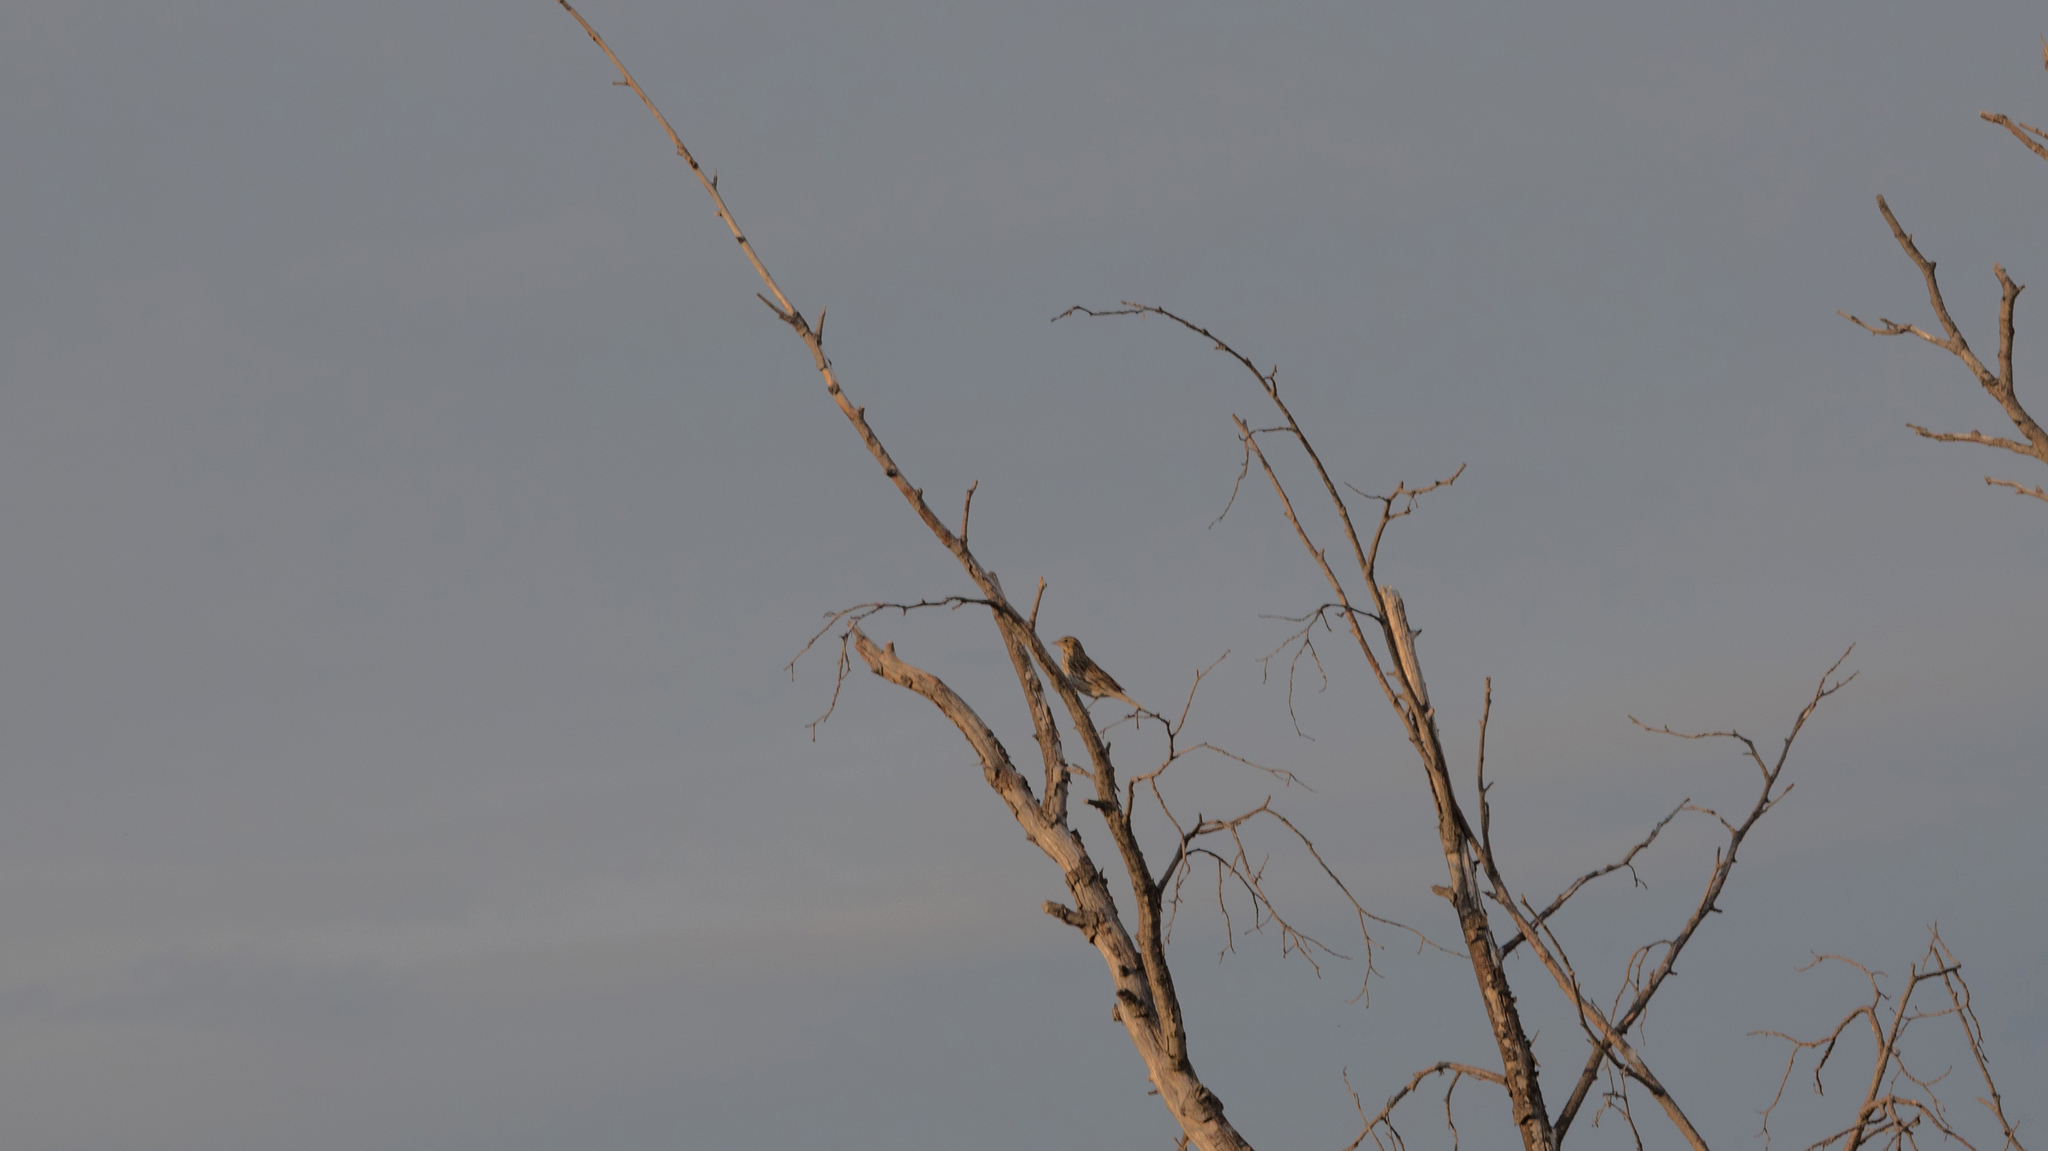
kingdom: Animalia
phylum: Chordata
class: Aves
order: Passeriformes
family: Passerellidae
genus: Passerculus
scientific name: Passerculus sandwichensis
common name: Savannah sparrow
